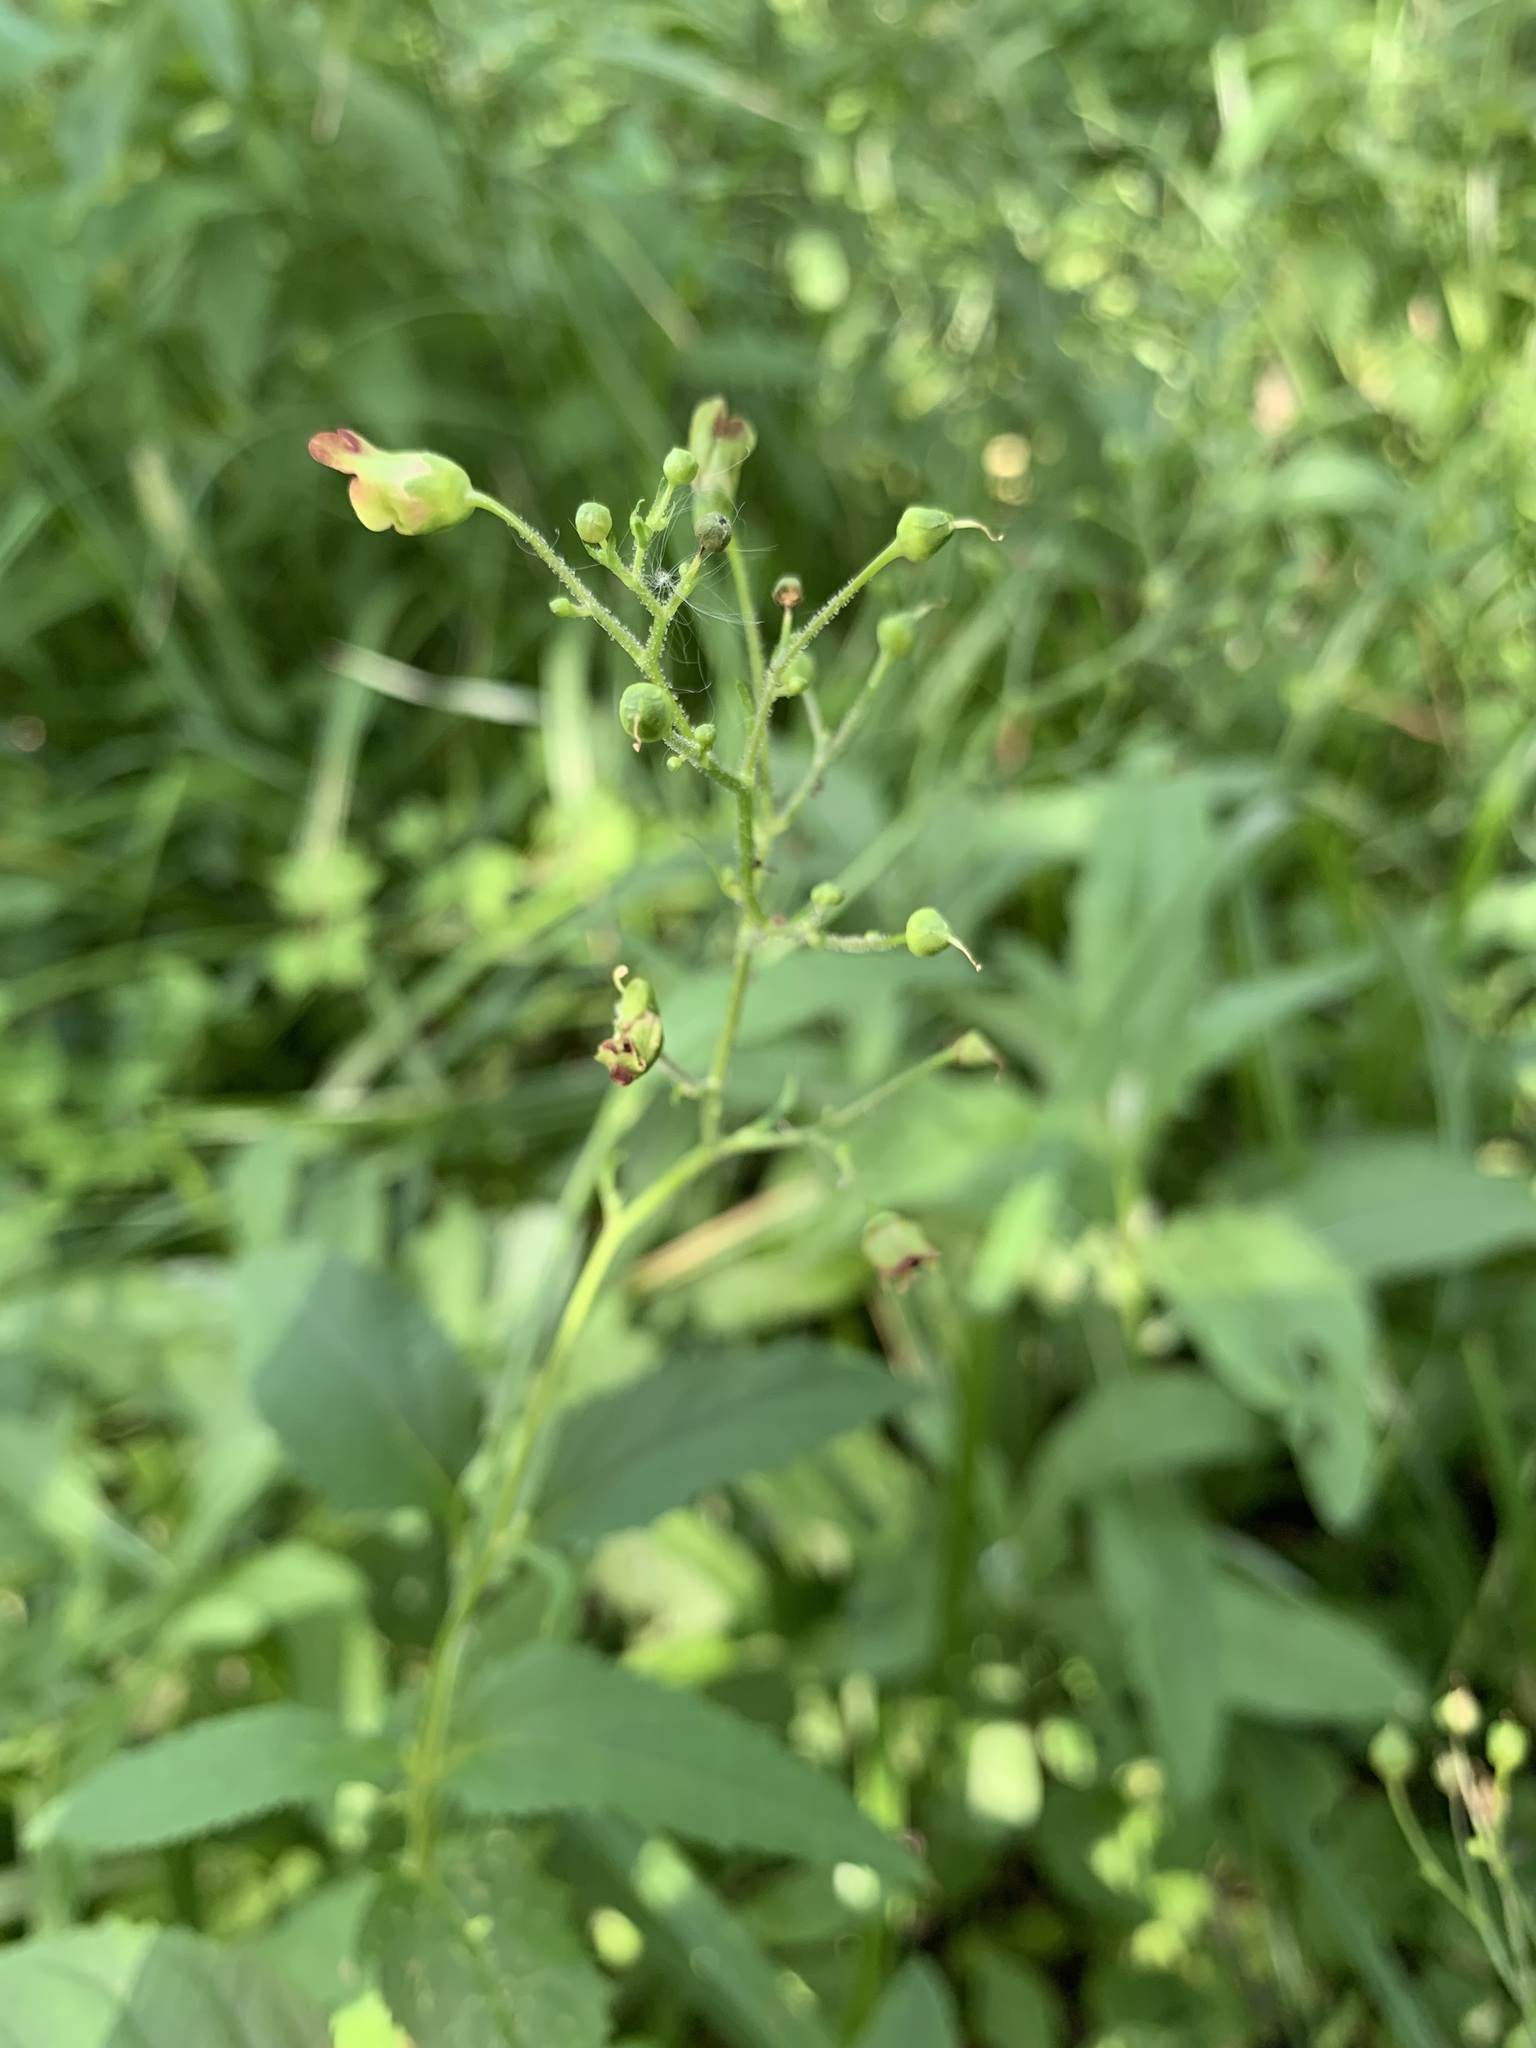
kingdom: Plantae
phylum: Tracheophyta
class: Magnoliopsida
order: Lamiales
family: Scrophulariaceae
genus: Scrophularia
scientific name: Scrophularia nodosa
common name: Common figwort
